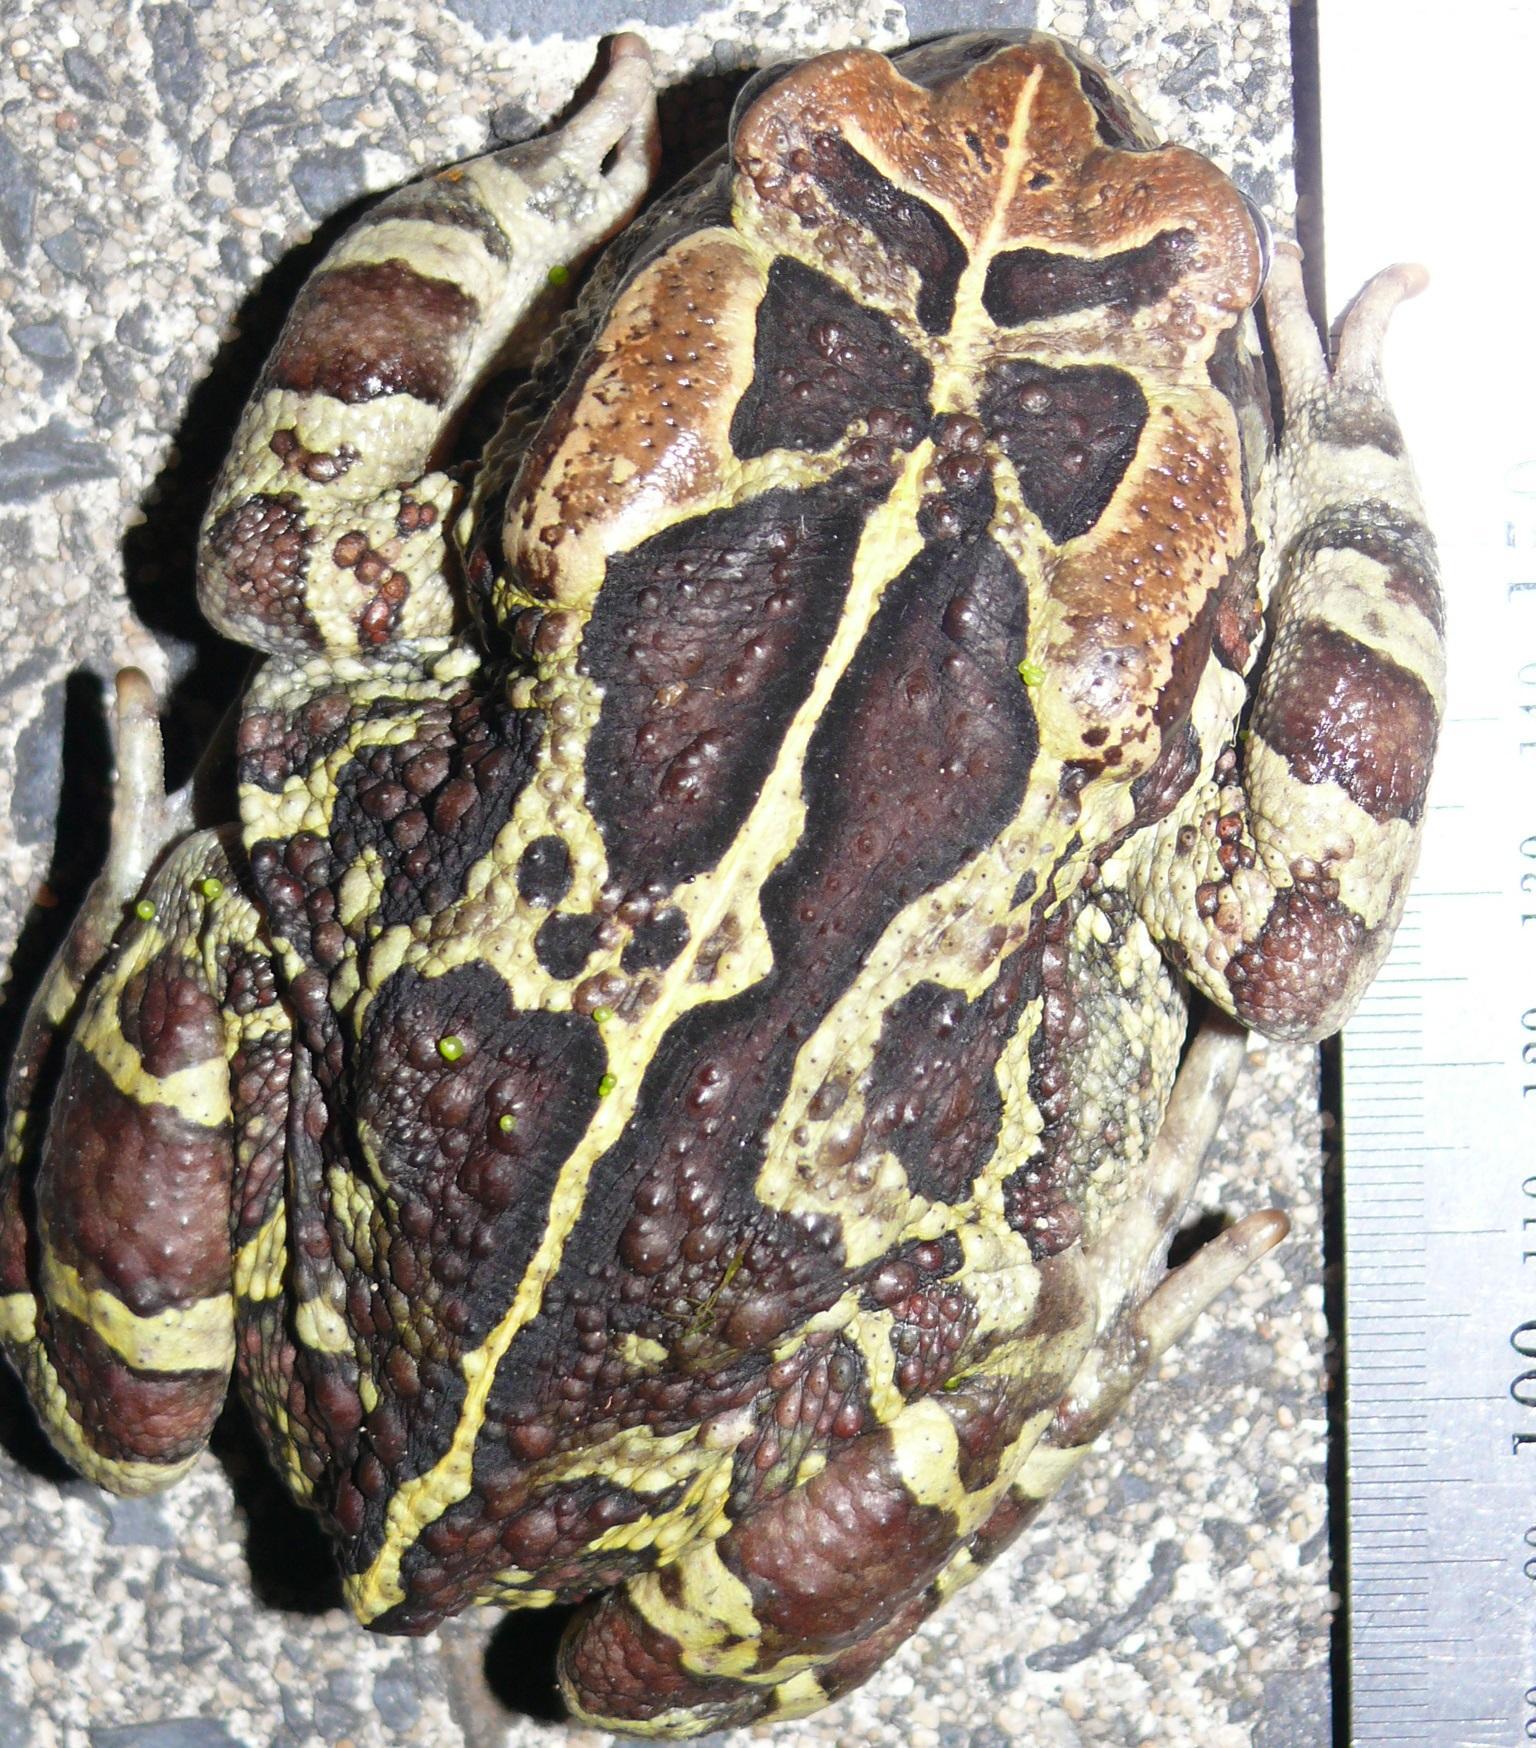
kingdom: Animalia
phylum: Chordata
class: Amphibia
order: Anura
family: Bufonidae
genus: Sclerophrys
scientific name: Sclerophrys pantherina
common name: Panther toad
